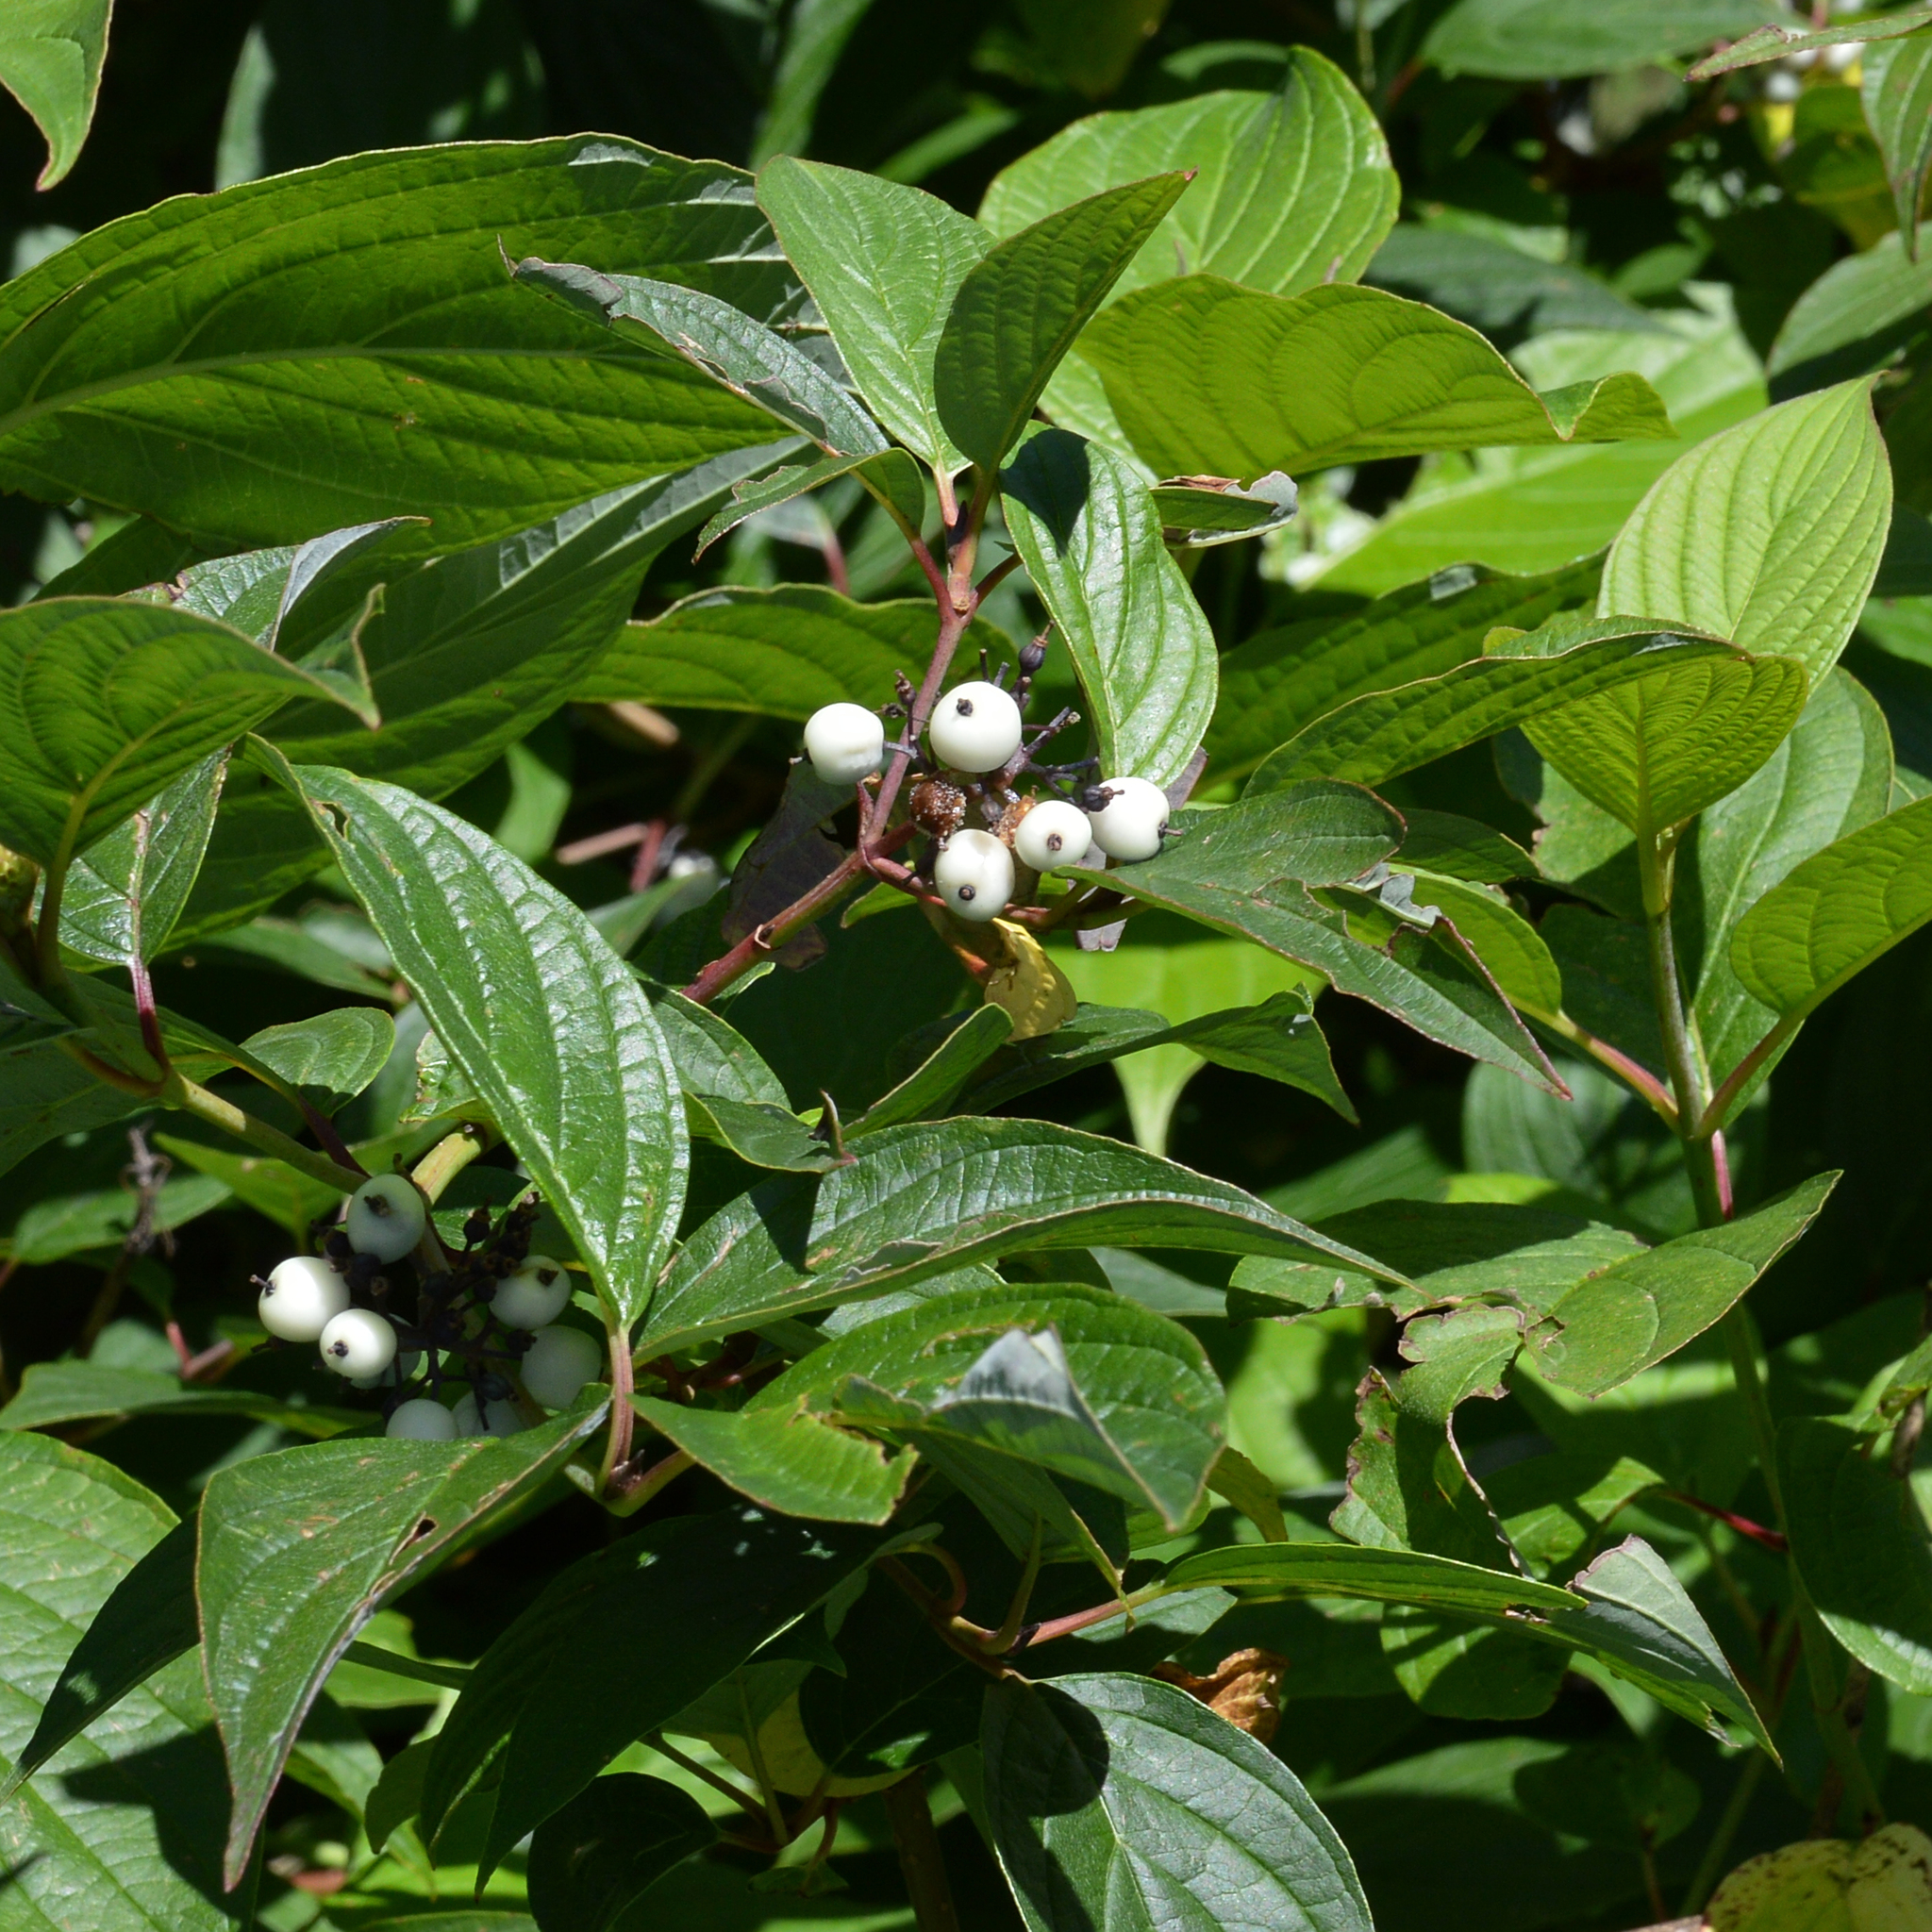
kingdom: Plantae
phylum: Tracheophyta
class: Magnoliopsida
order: Cornales
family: Cornaceae
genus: Cornus
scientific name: Cornus alba
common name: White dogwood
